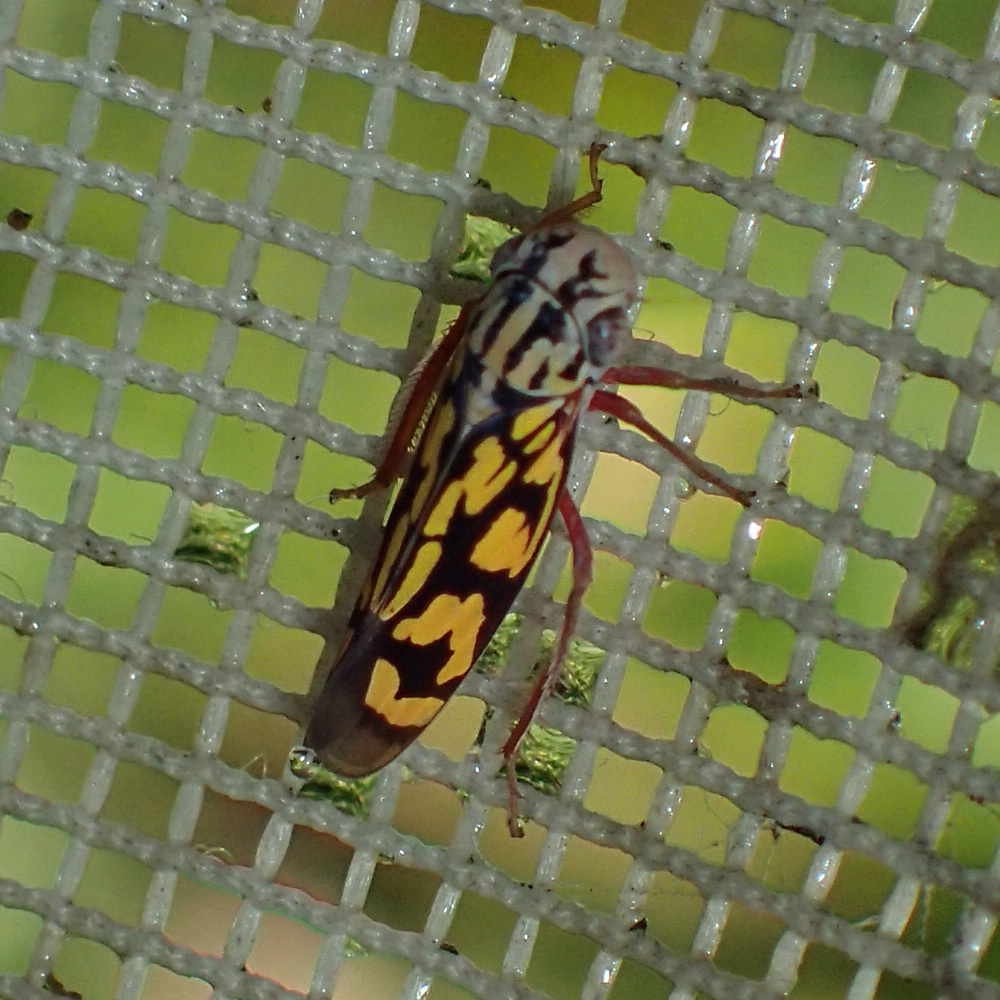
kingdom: Animalia
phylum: Arthropoda
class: Insecta
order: Hemiptera
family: Cicadellidae
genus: Apogonalia
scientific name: Apogonalia sanguinipes
